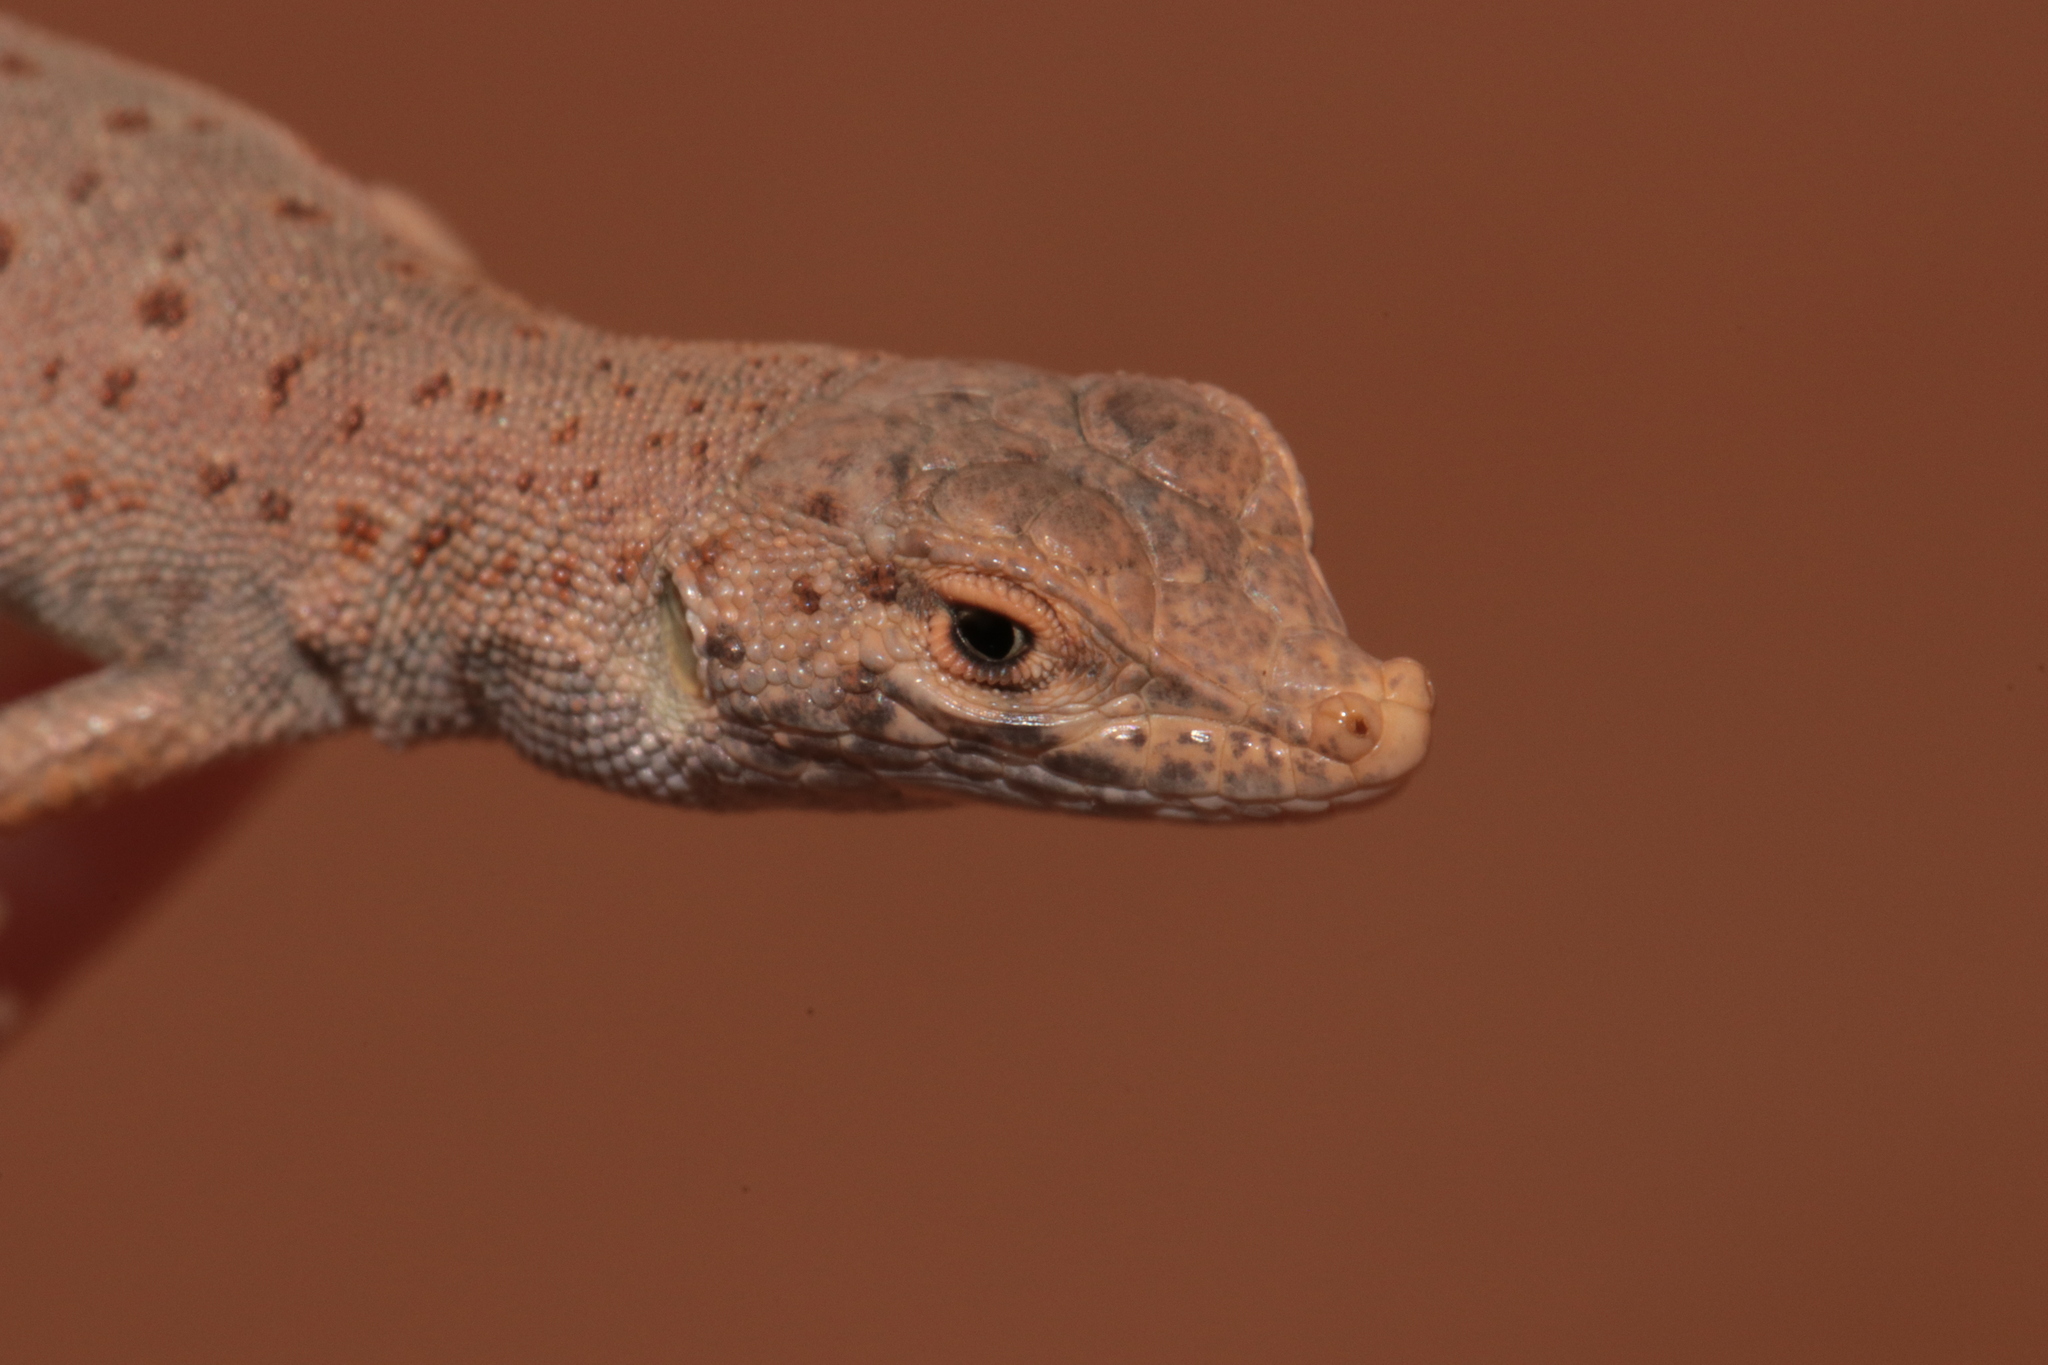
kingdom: Animalia
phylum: Chordata
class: Squamata
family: Lacertidae
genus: Mesalina
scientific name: Mesalina brevirostris
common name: Blanford's short-nosed desert lizard
